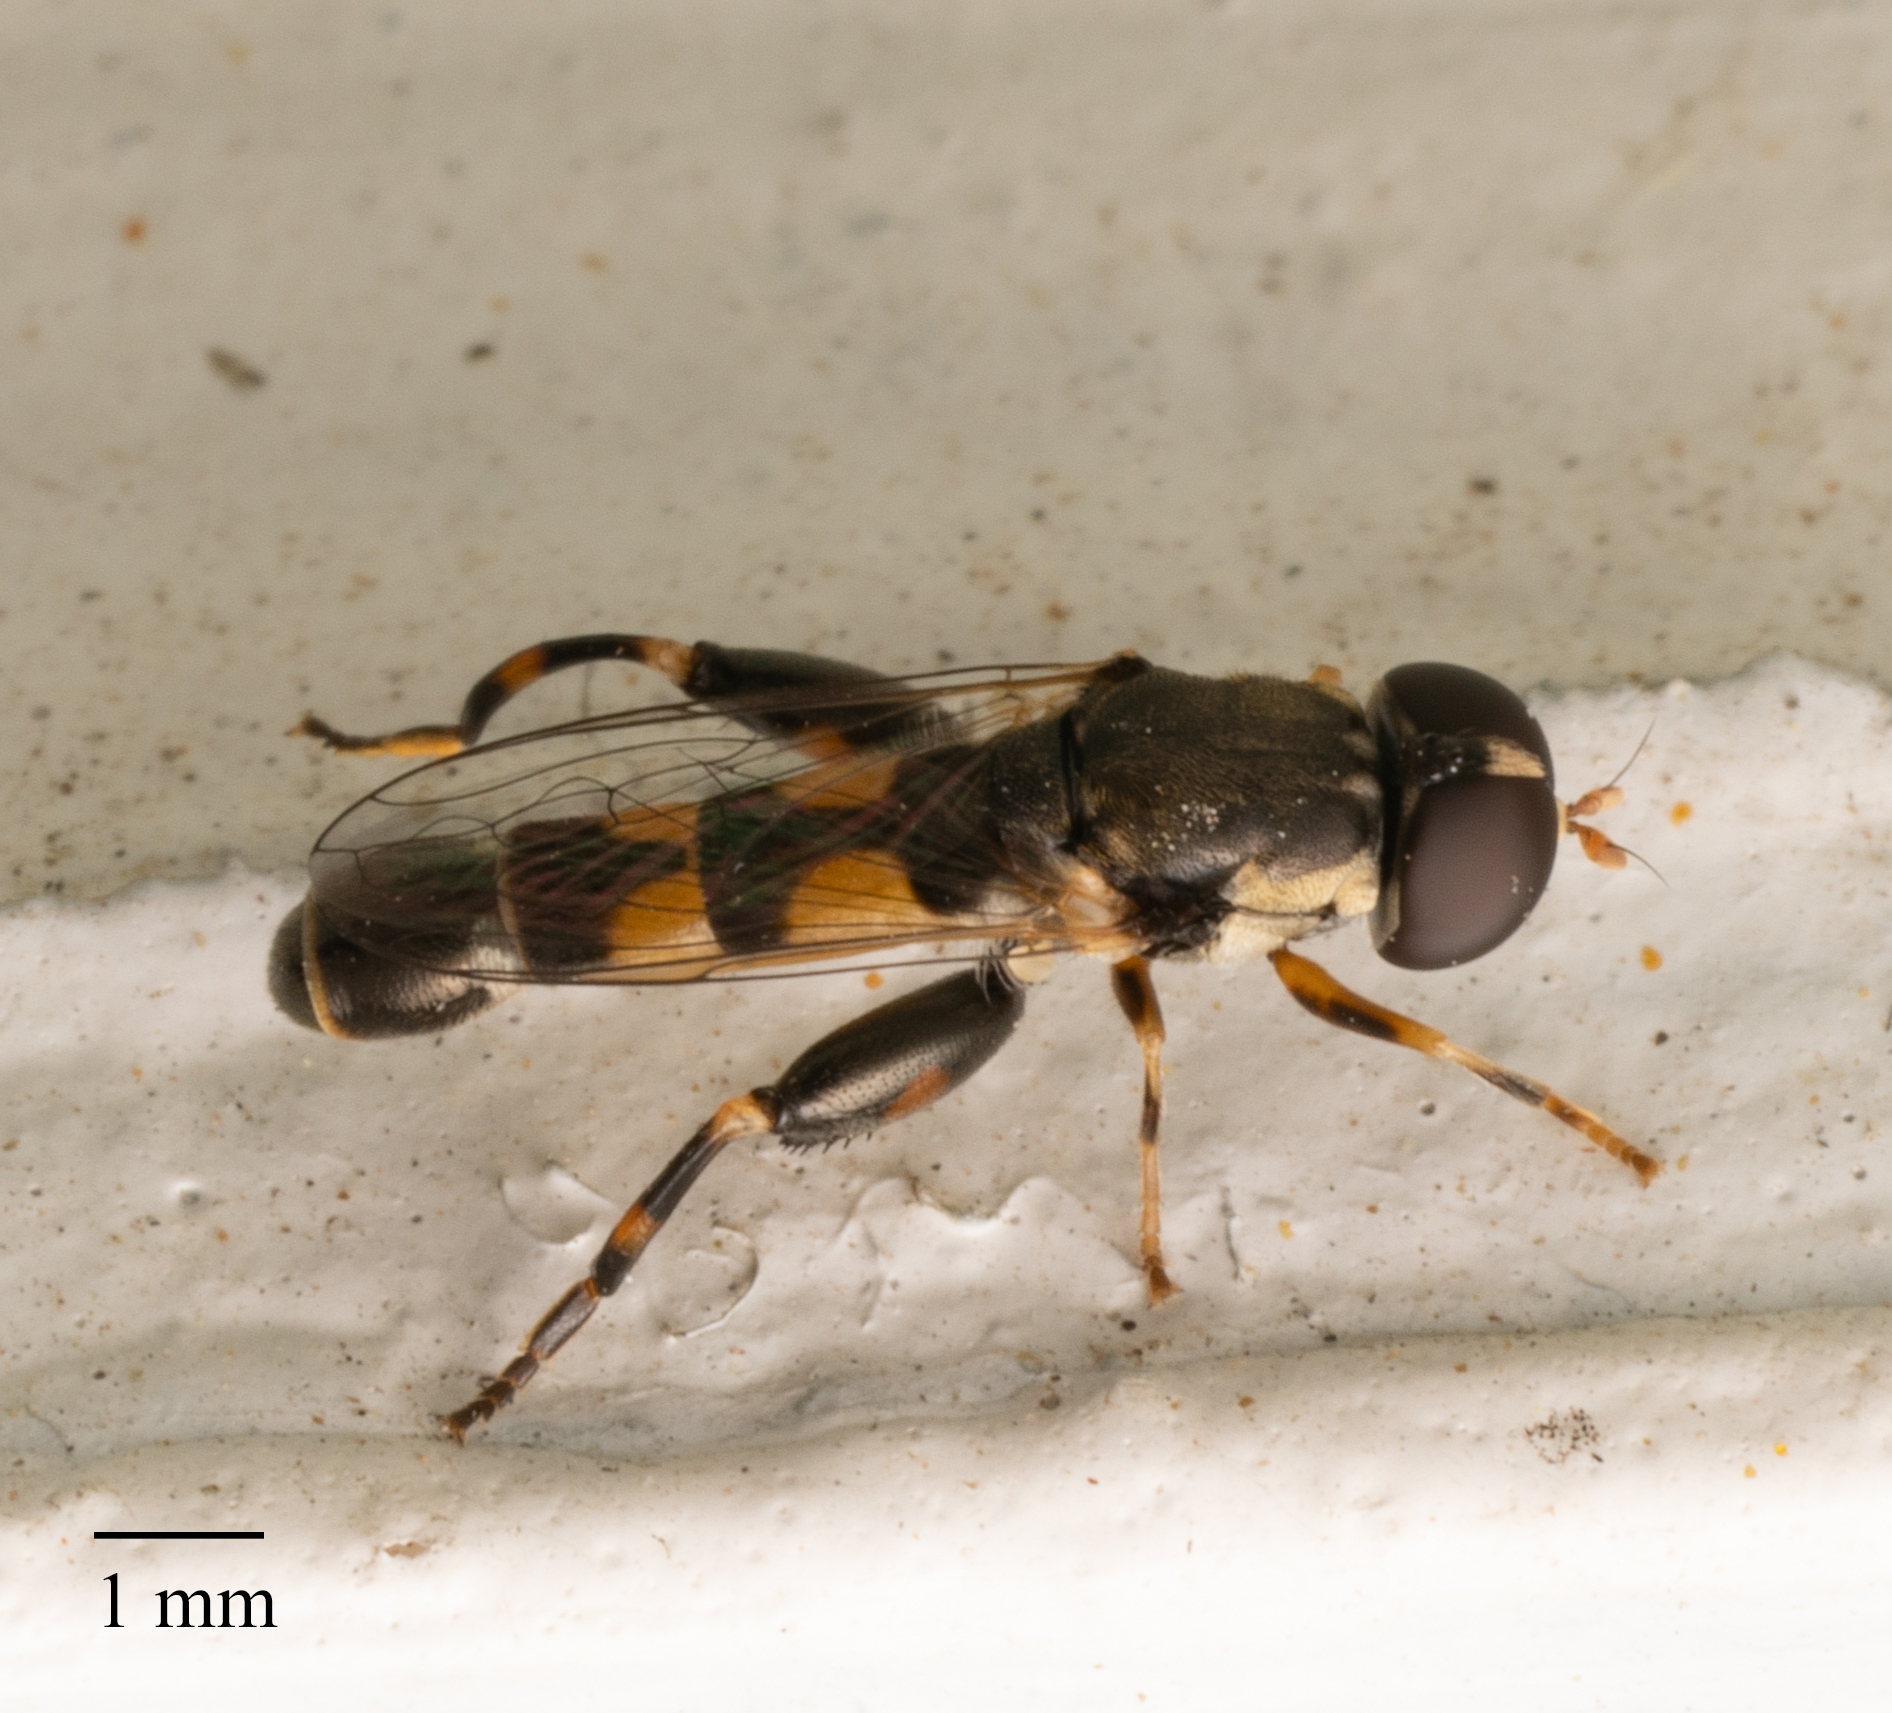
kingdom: Animalia
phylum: Arthropoda
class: Insecta
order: Diptera
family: Syrphidae
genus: Syritta
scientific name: Syritta pipiens
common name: Hover fly
